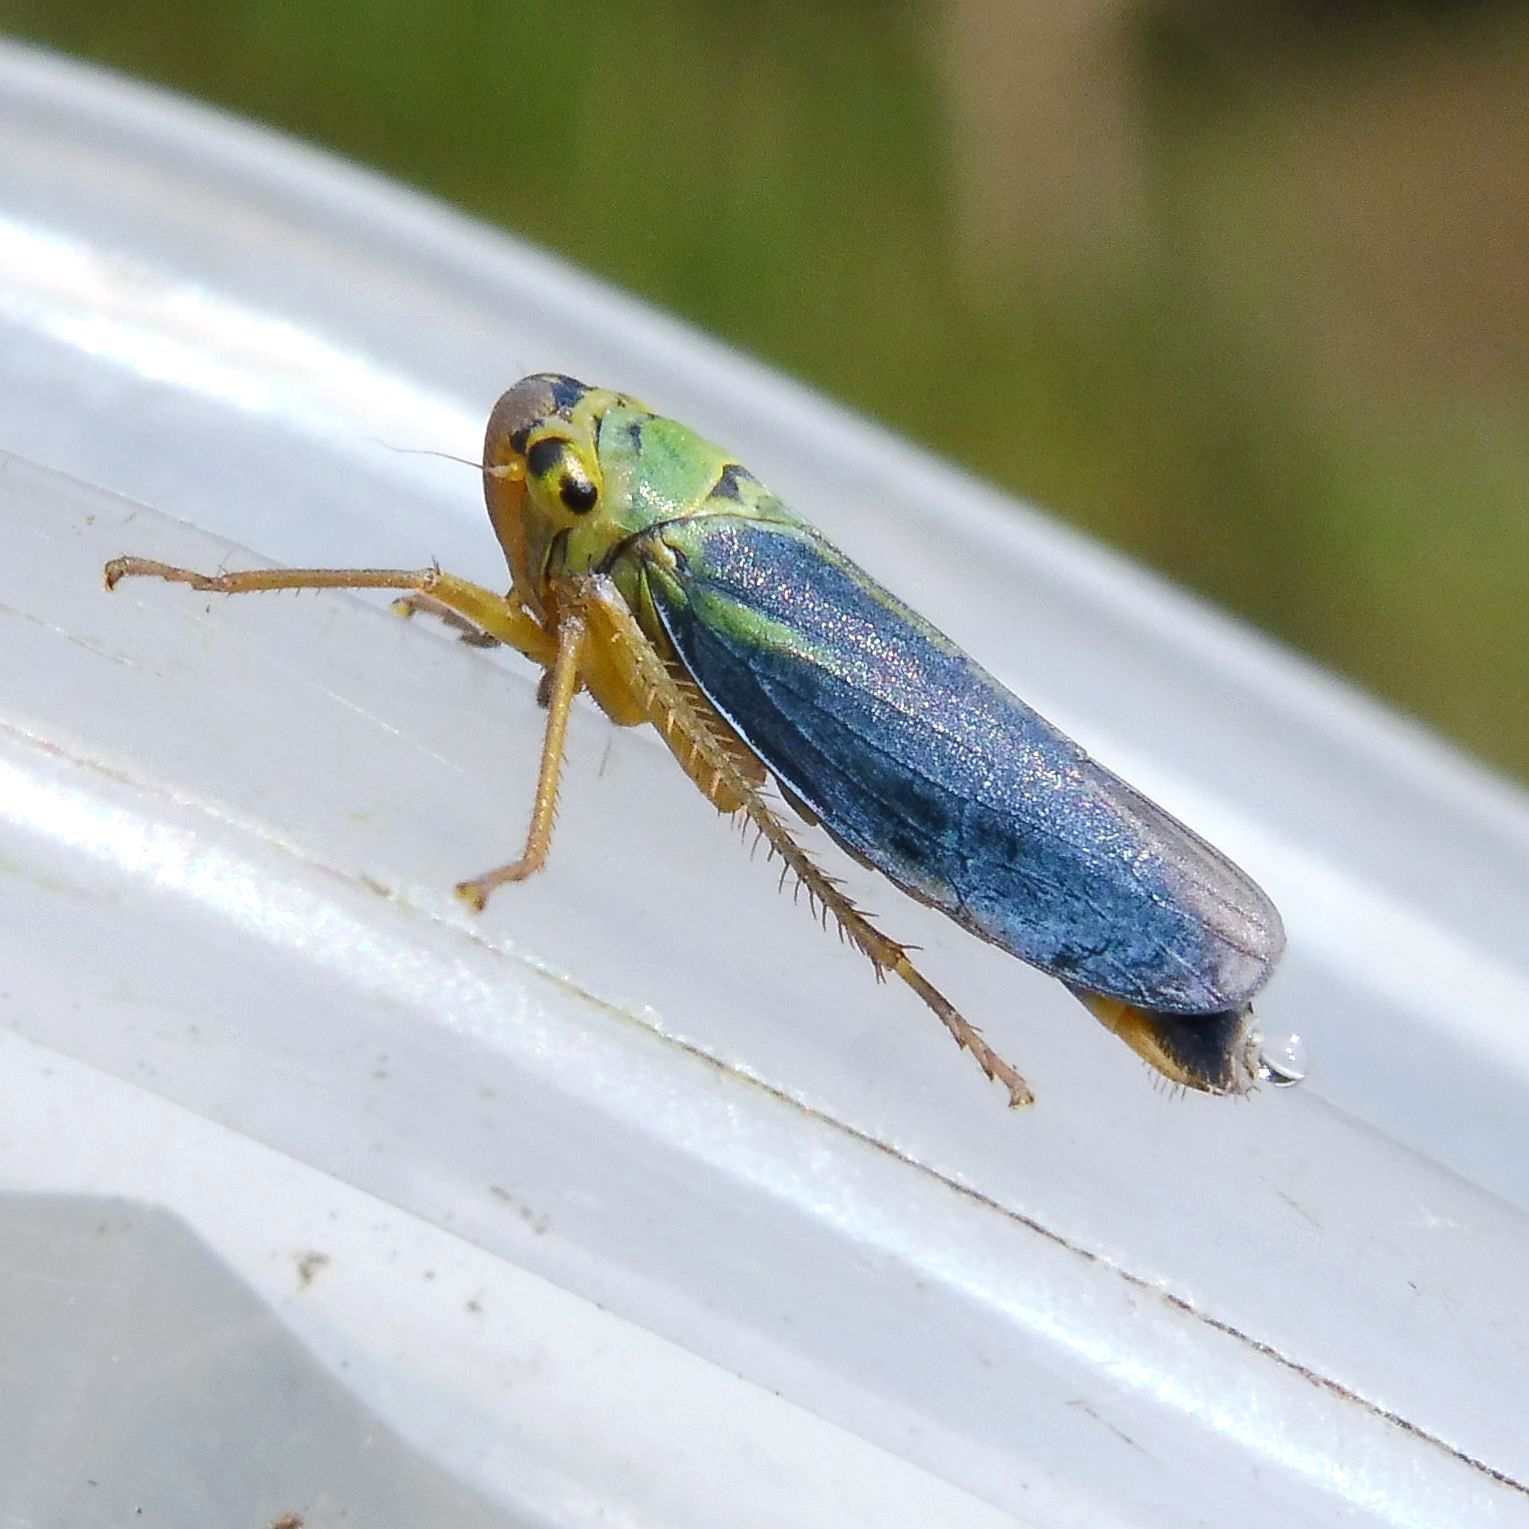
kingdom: Animalia
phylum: Arthropoda
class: Insecta
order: Hemiptera
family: Cicadellidae
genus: Cicadella
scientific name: Cicadella viridis
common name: Leafhopper
